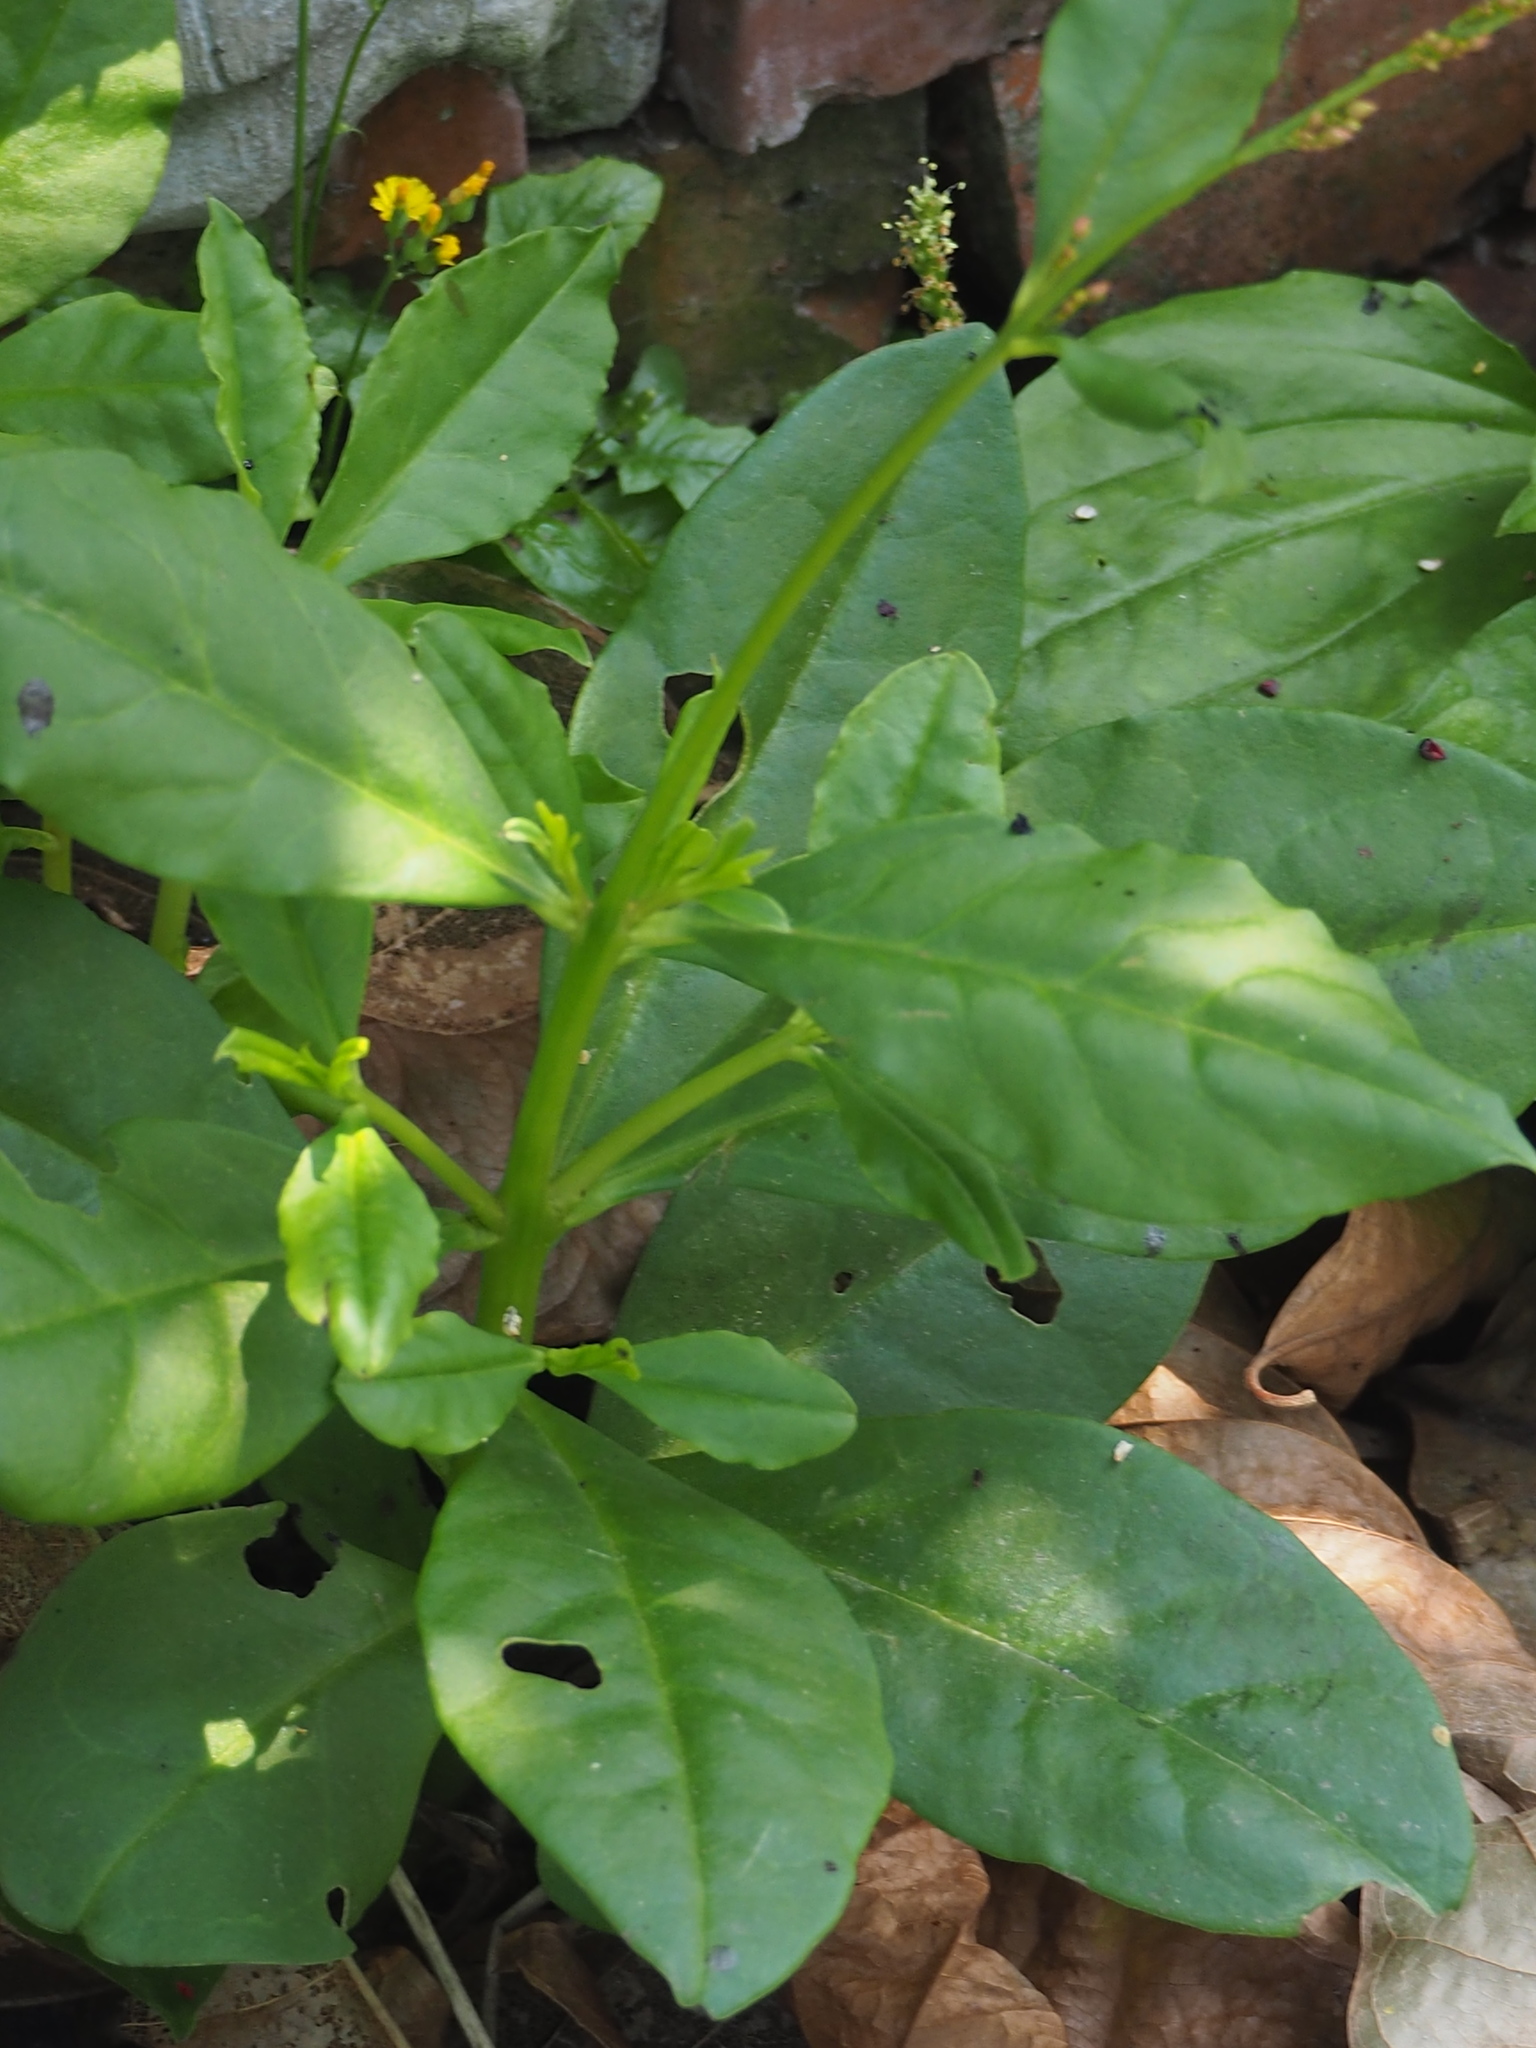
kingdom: Plantae
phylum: Tracheophyta
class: Magnoliopsida
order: Caryophyllales
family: Talinaceae
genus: Talinum
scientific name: Talinum paniculatum
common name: Jewels of opar
